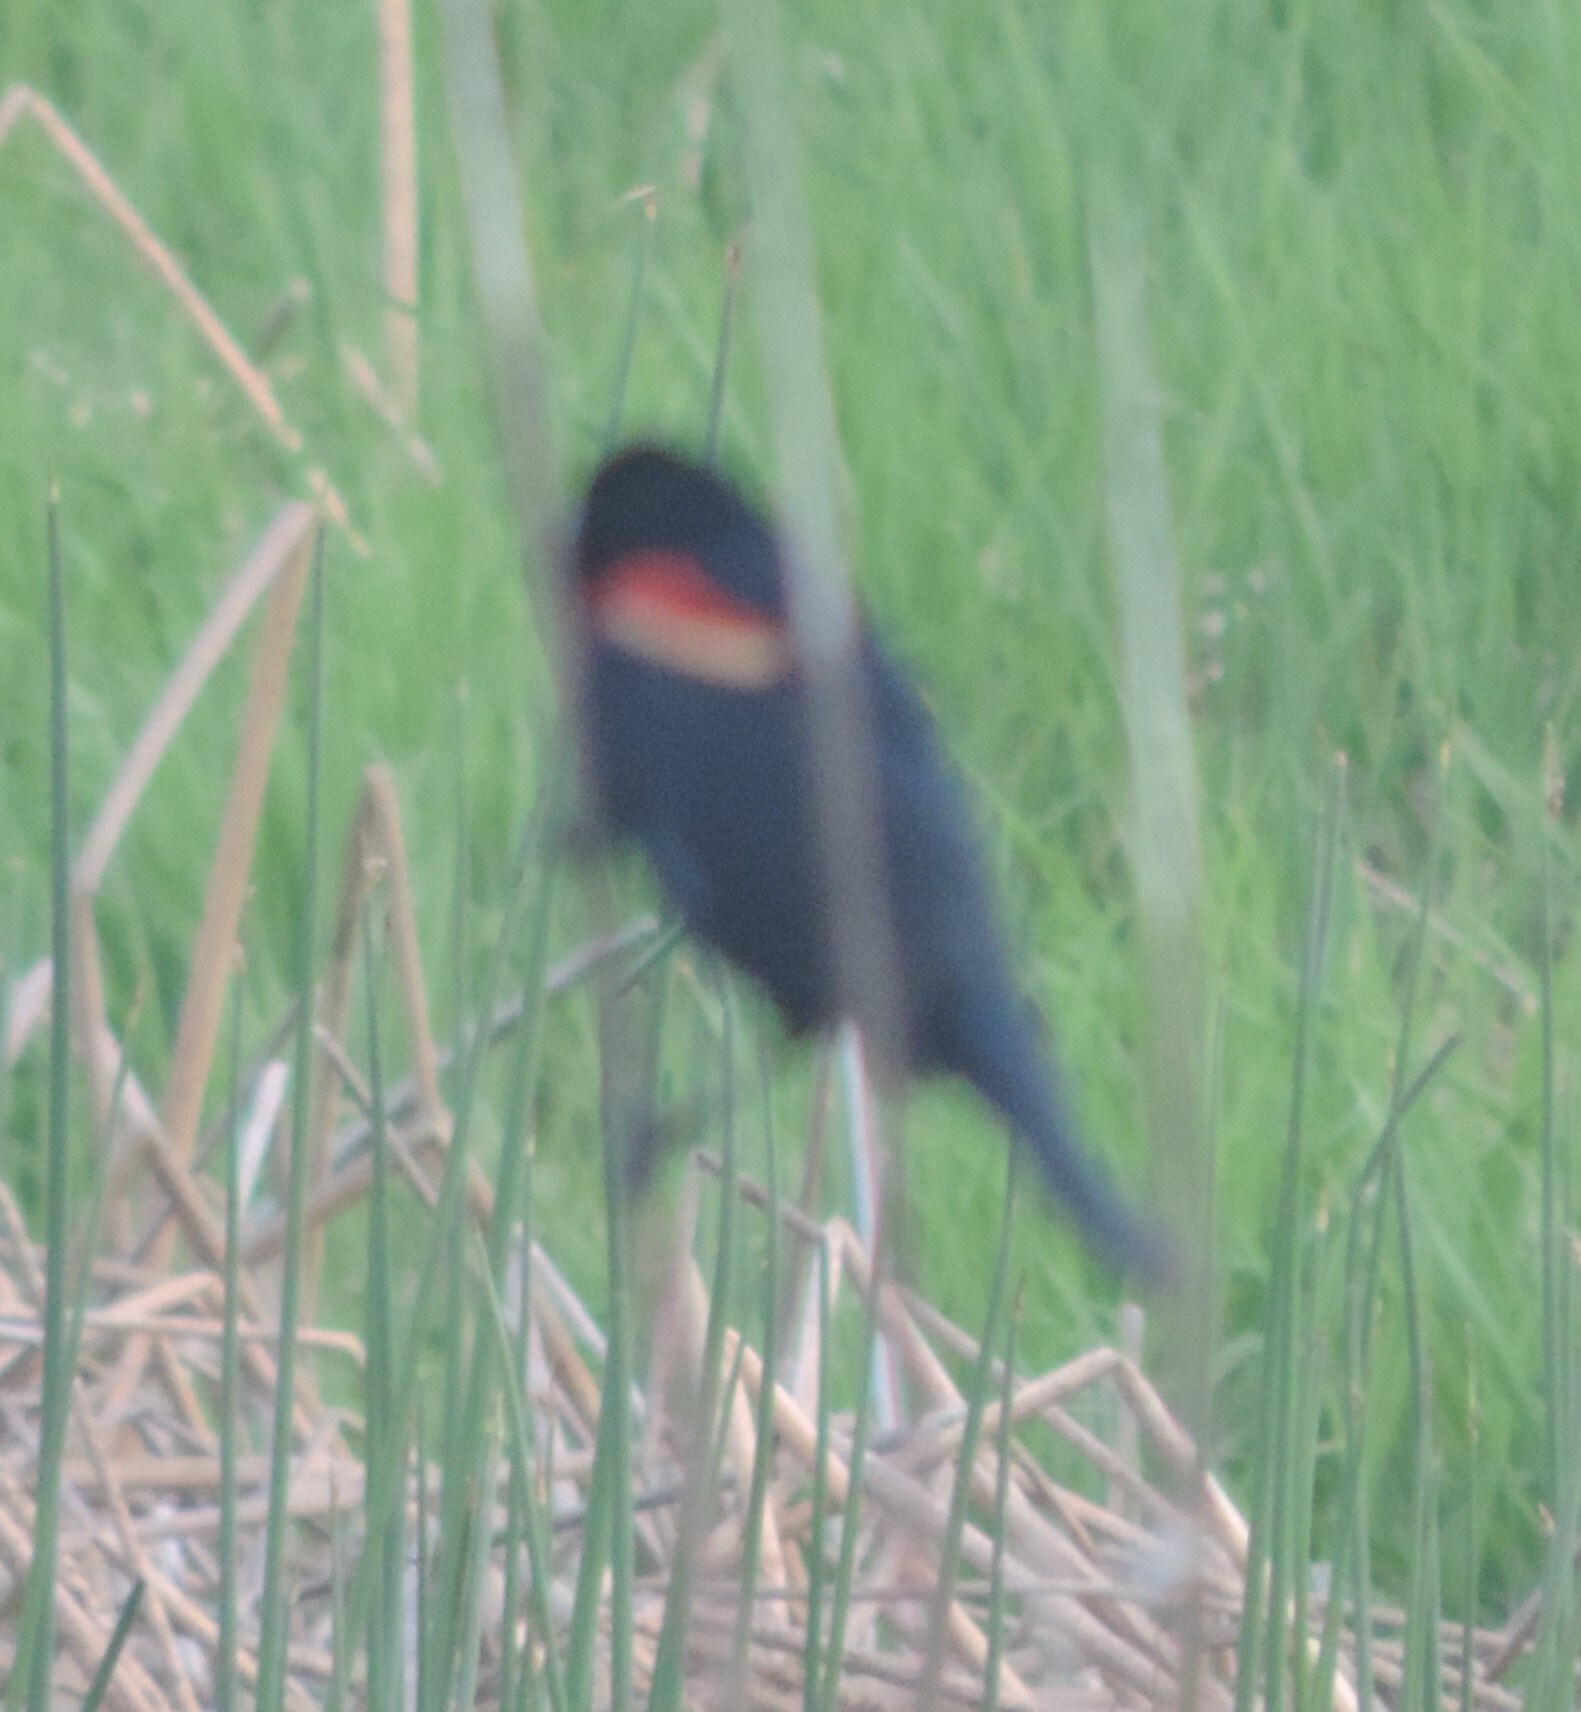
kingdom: Animalia
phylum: Chordata
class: Aves
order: Passeriformes
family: Icteridae
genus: Agelaius
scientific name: Agelaius phoeniceus
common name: Red-winged blackbird
